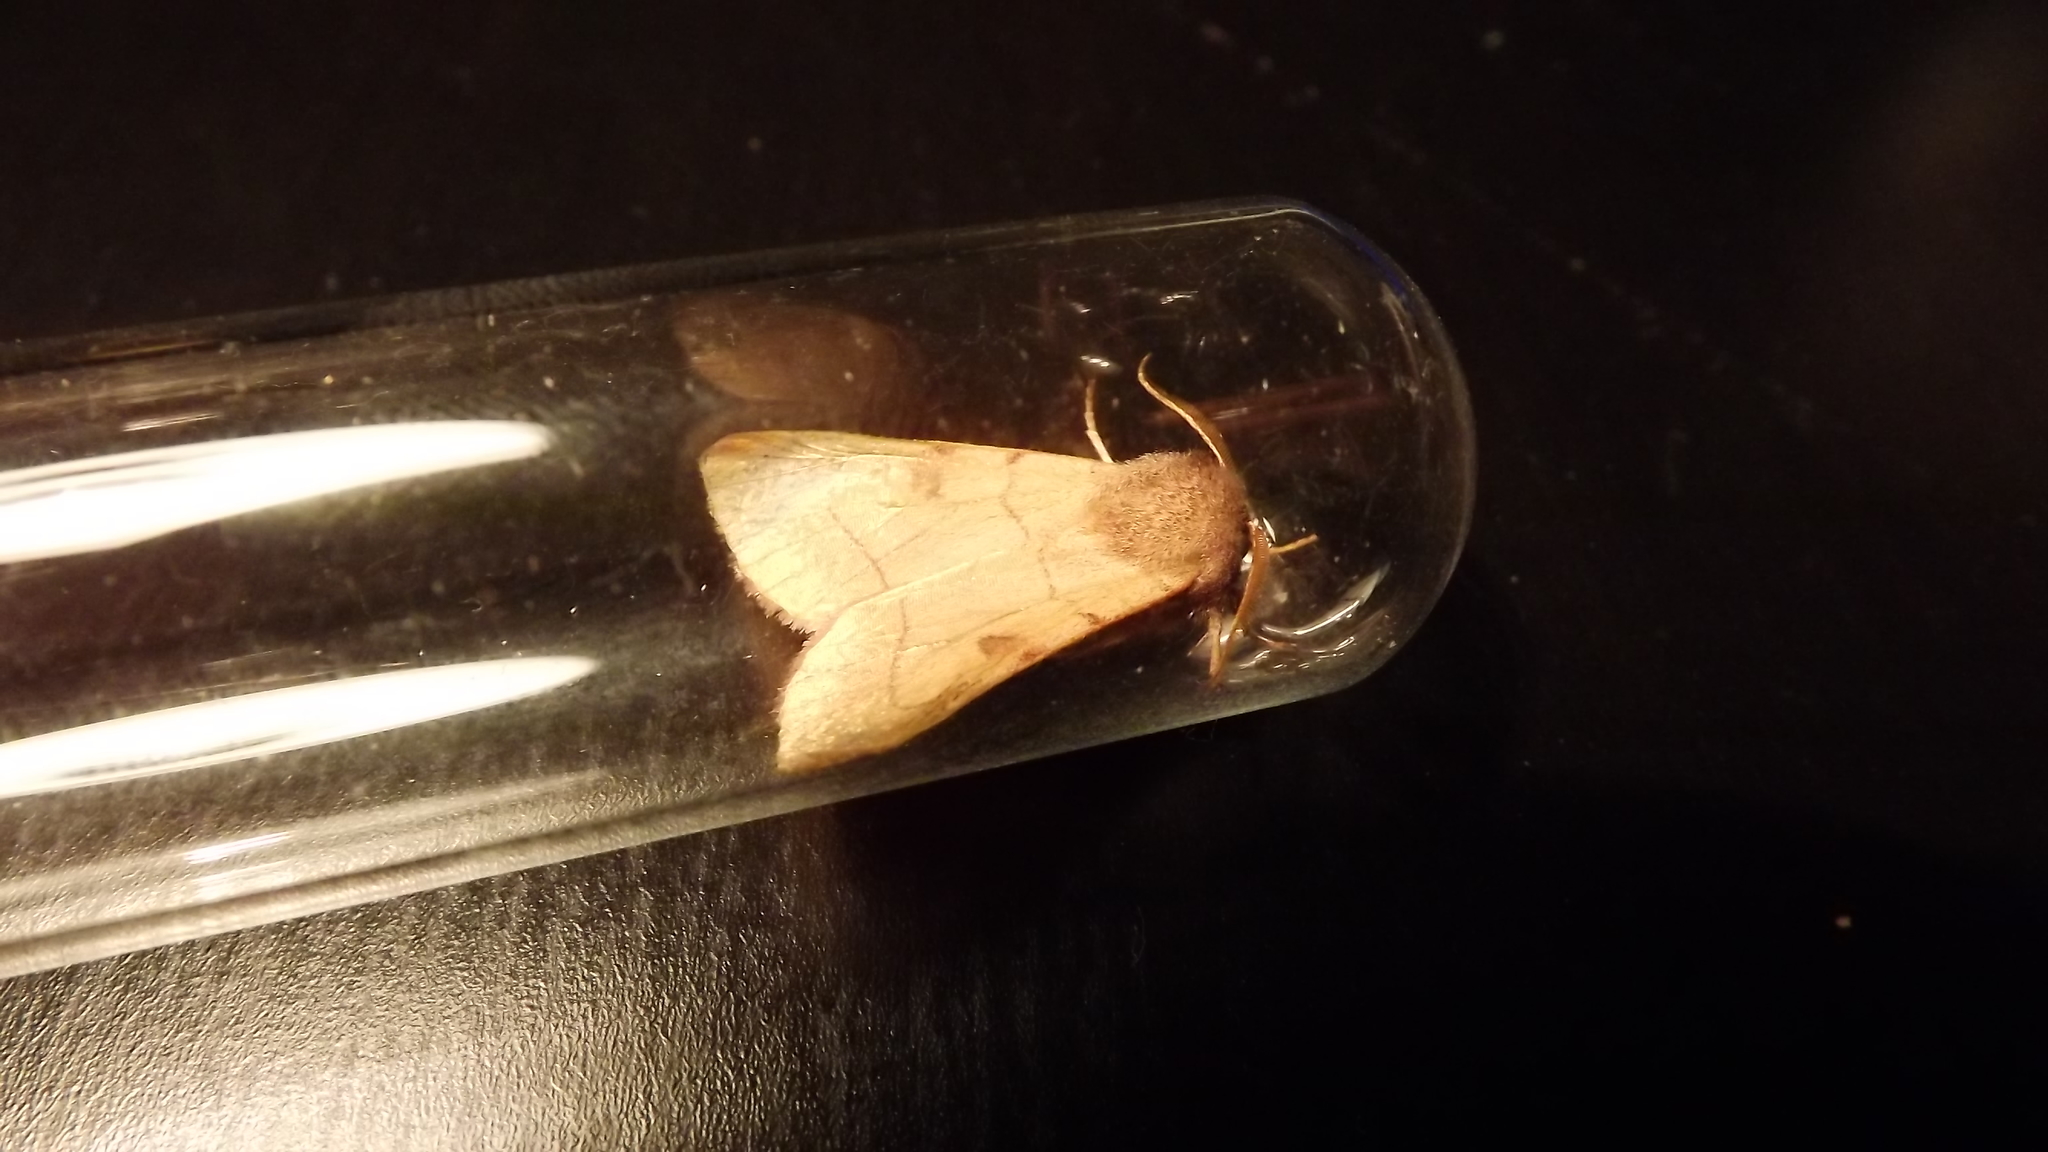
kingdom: Animalia
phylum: Arthropoda
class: Insecta
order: Lepidoptera
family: Noctuidae
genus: Choephora
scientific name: Choephora fungorum
